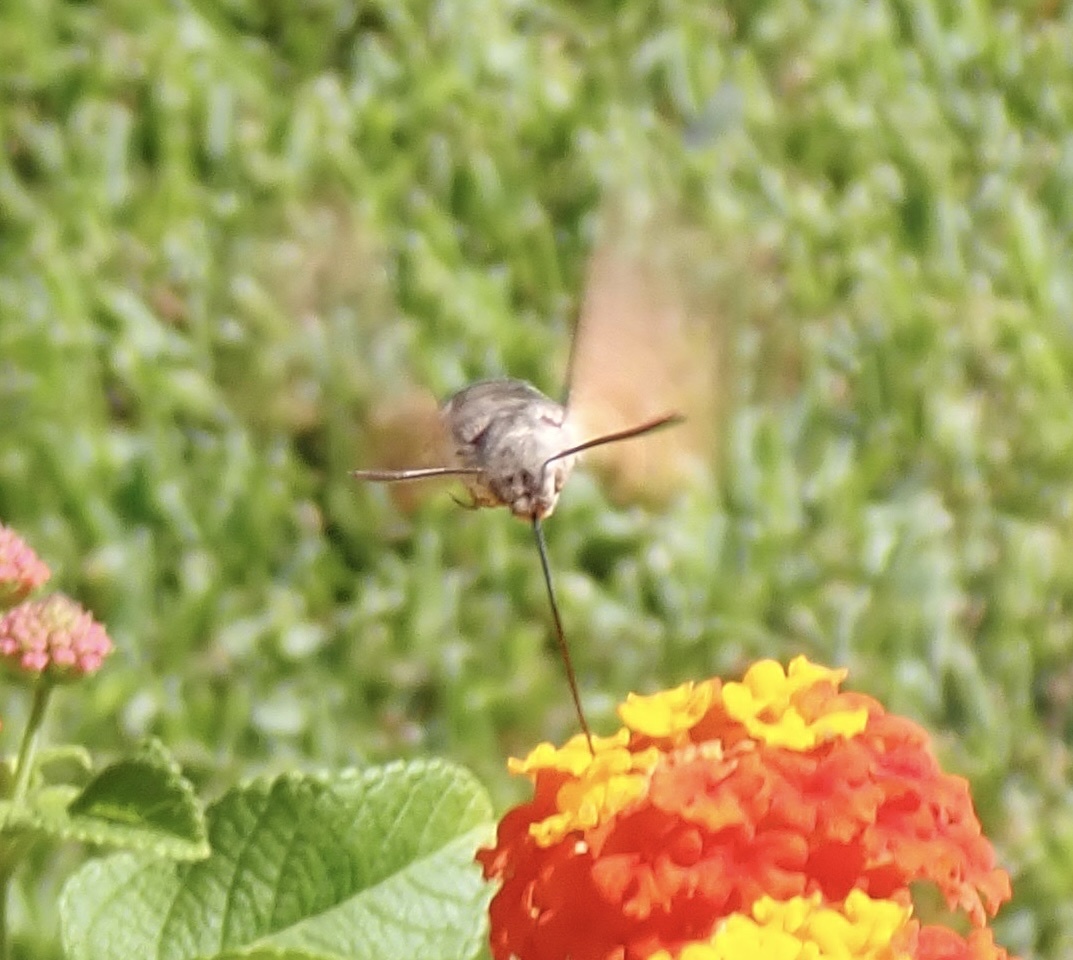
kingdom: Animalia
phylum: Arthropoda
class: Insecta
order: Lepidoptera
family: Sphingidae
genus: Macroglossum
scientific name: Macroglossum stellatarum
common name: Humming-bird hawk-moth
